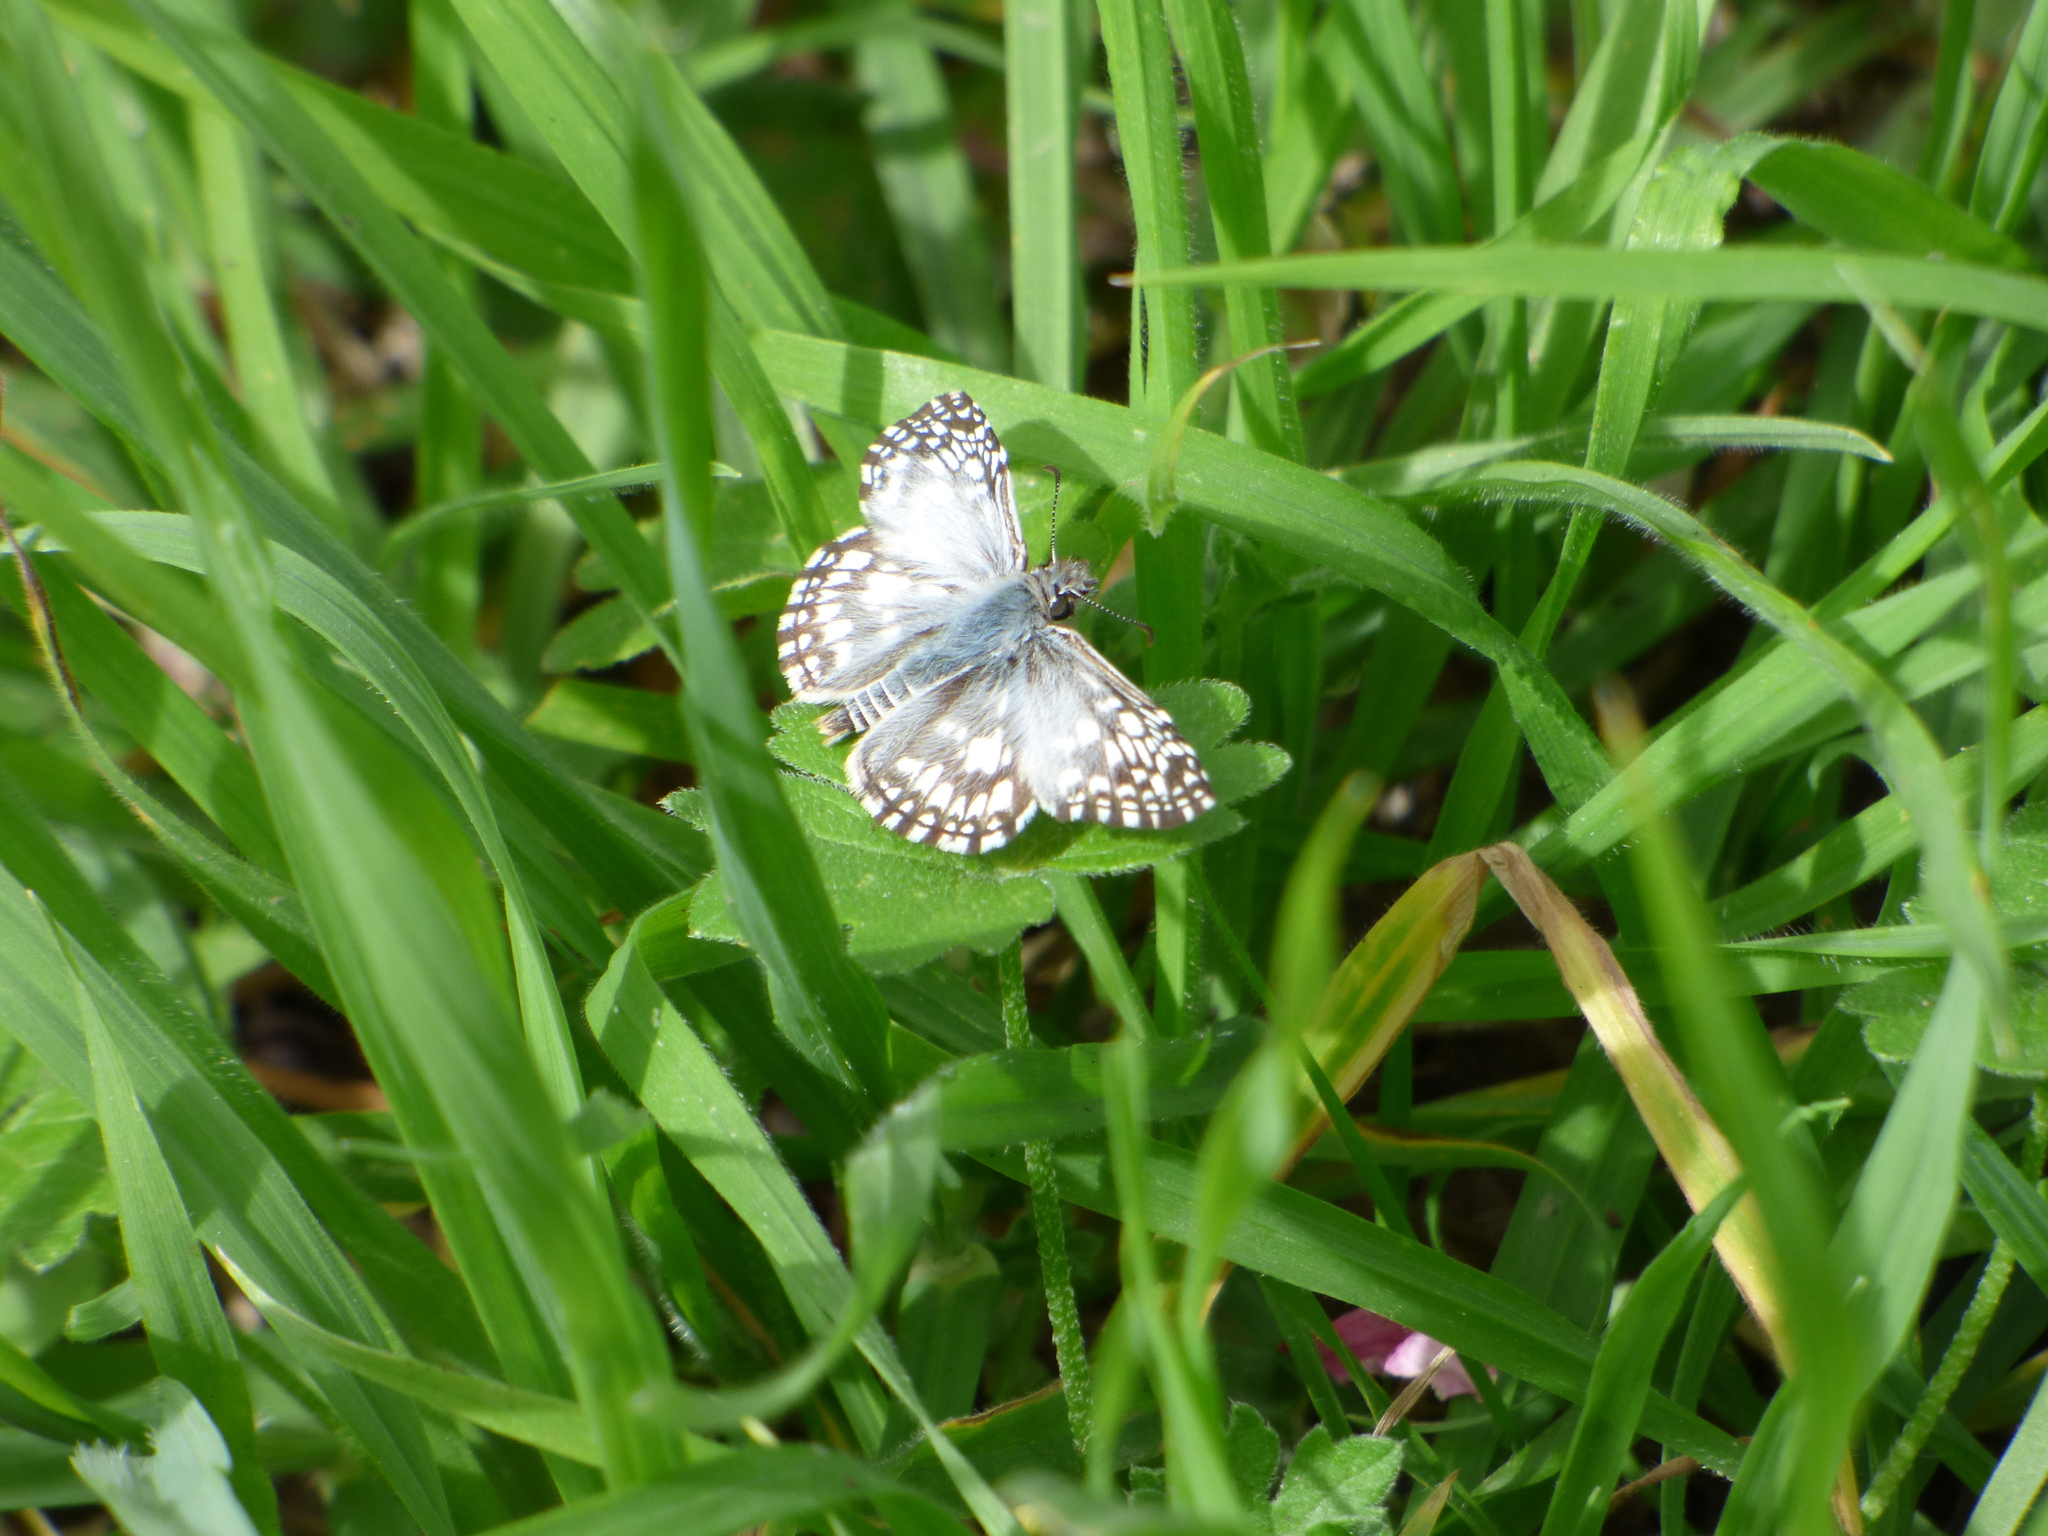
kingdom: Animalia
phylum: Arthropoda
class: Insecta
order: Lepidoptera
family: Hesperiidae
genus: Pyrgus
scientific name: Pyrgus oileus
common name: Tropical checkered-skipper
